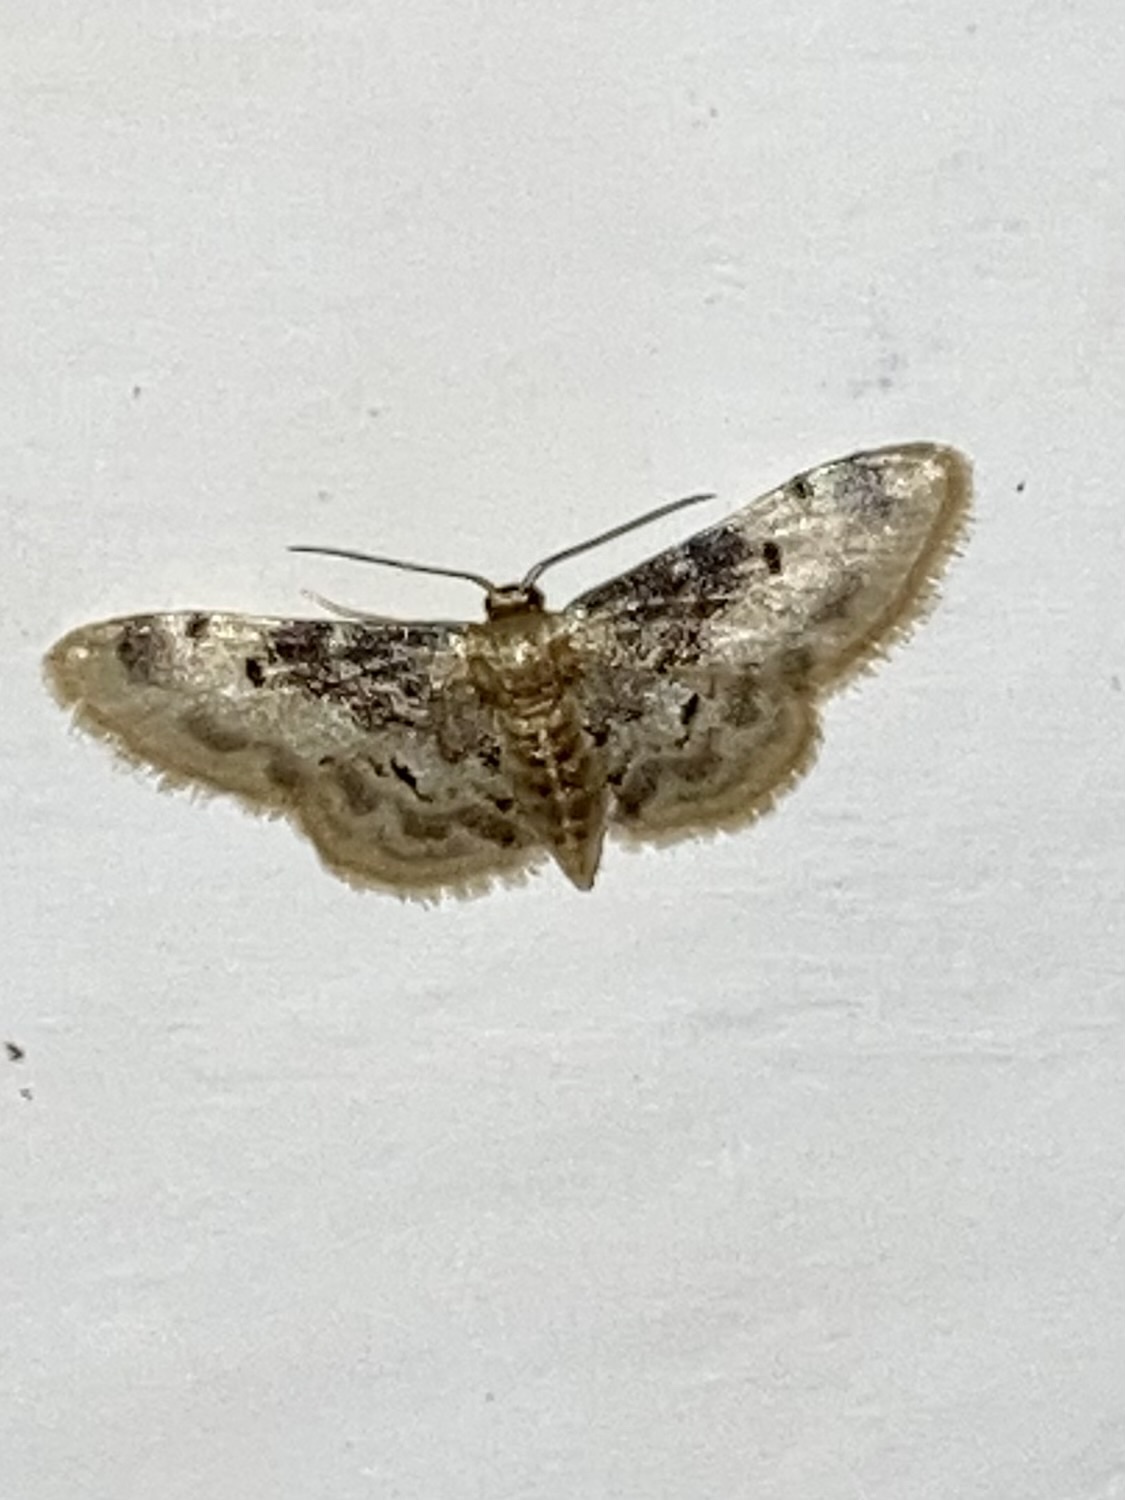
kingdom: Animalia
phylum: Arthropoda
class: Insecta
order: Lepidoptera
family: Geometridae
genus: Idaea
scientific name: Idaea filicata
